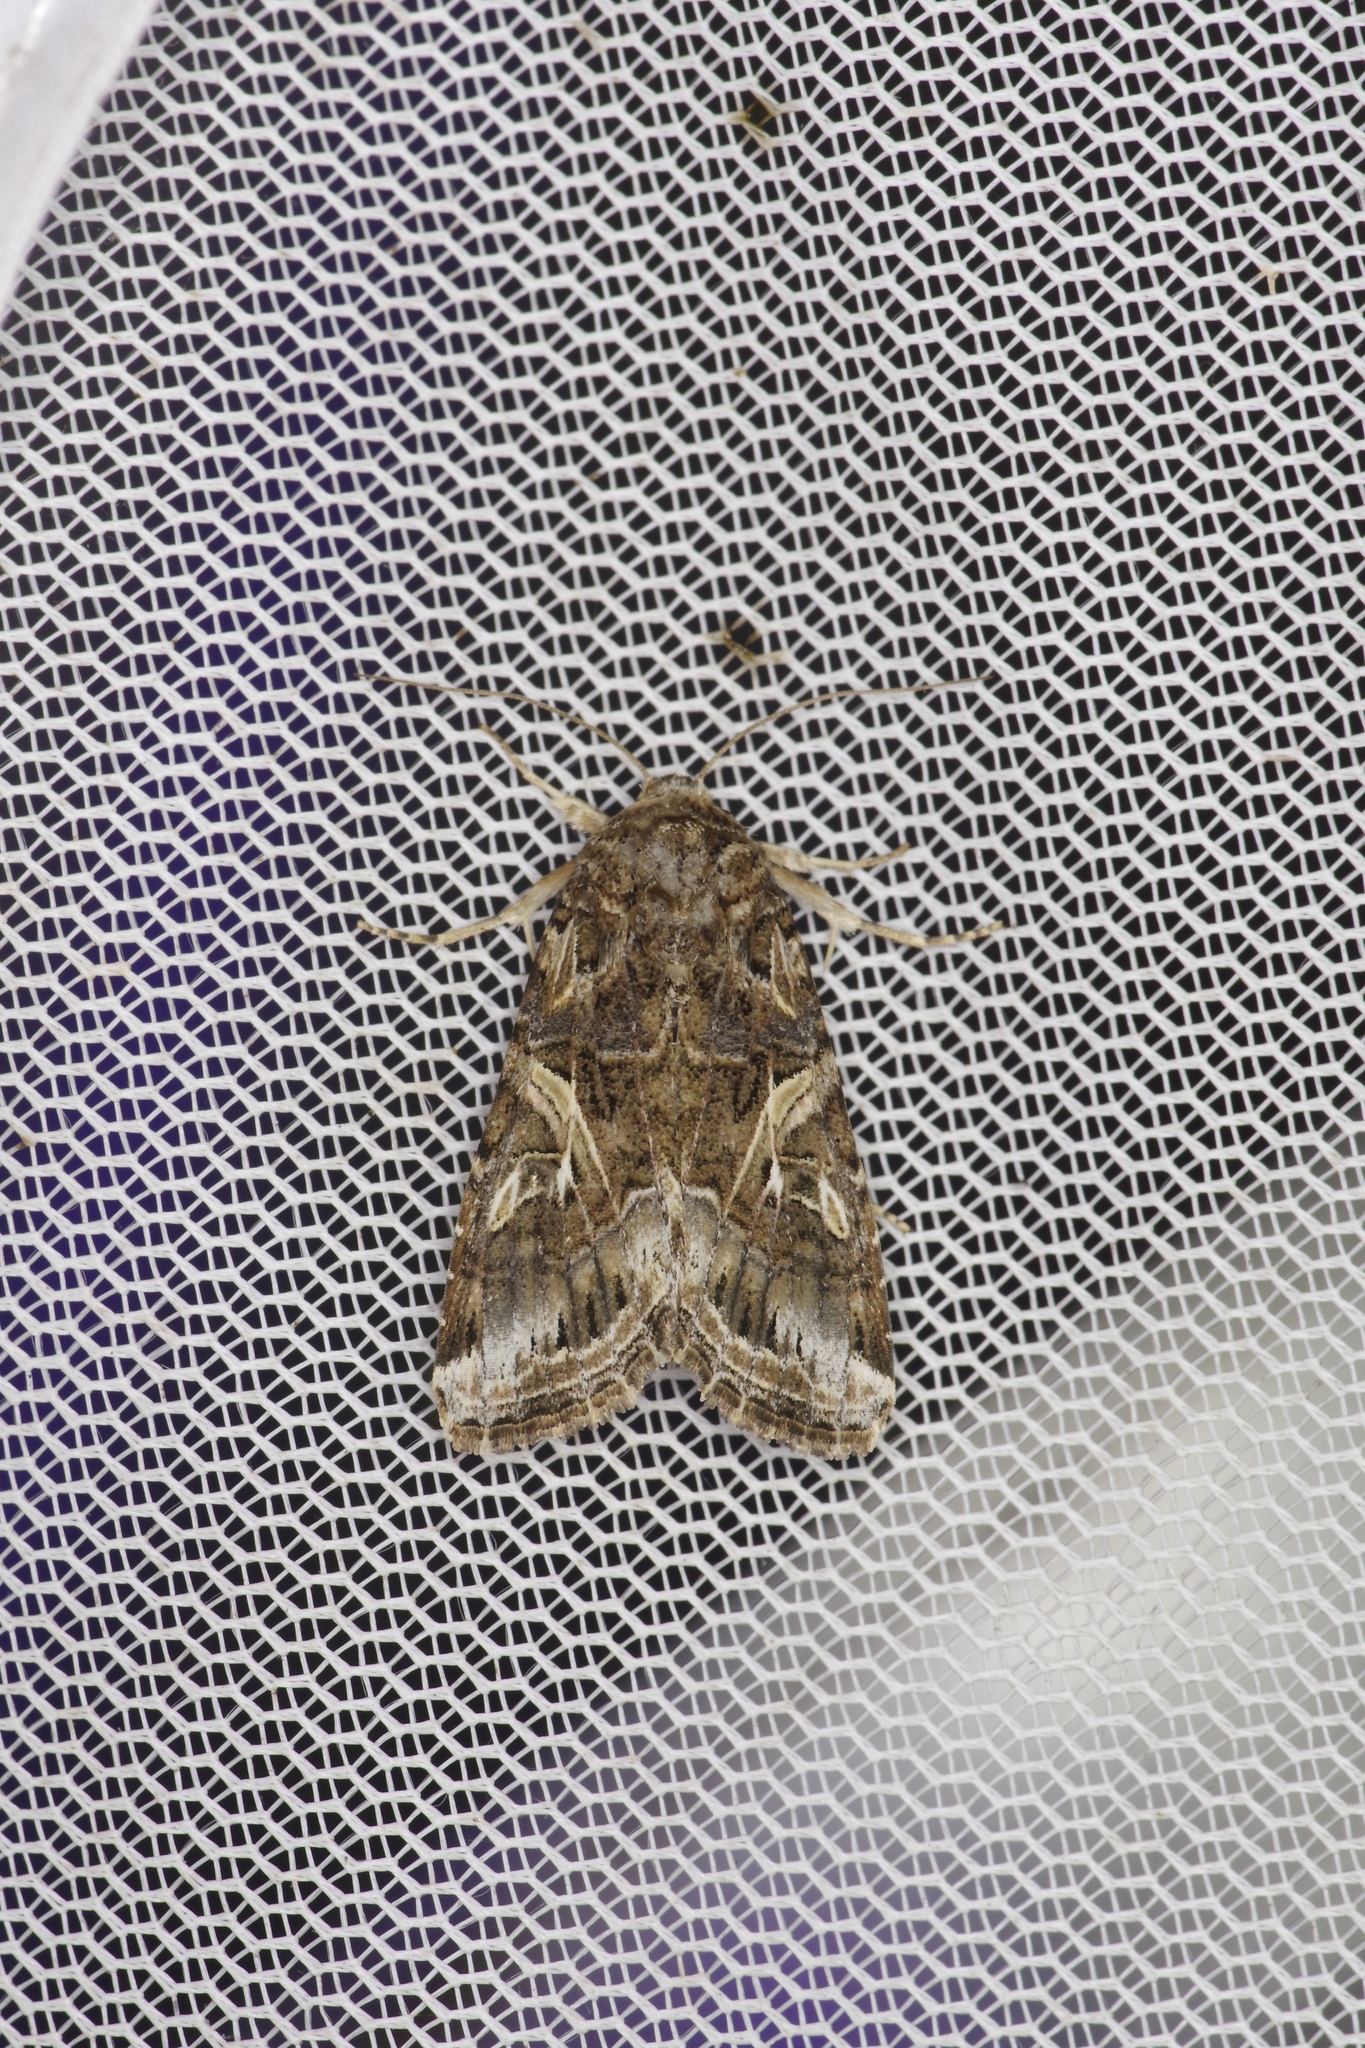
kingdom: Animalia
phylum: Arthropoda
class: Insecta
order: Lepidoptera
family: Noctuidae
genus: Spodoptera
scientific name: Spodoptera ornithogalli
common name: Yellow-striped armyworm
